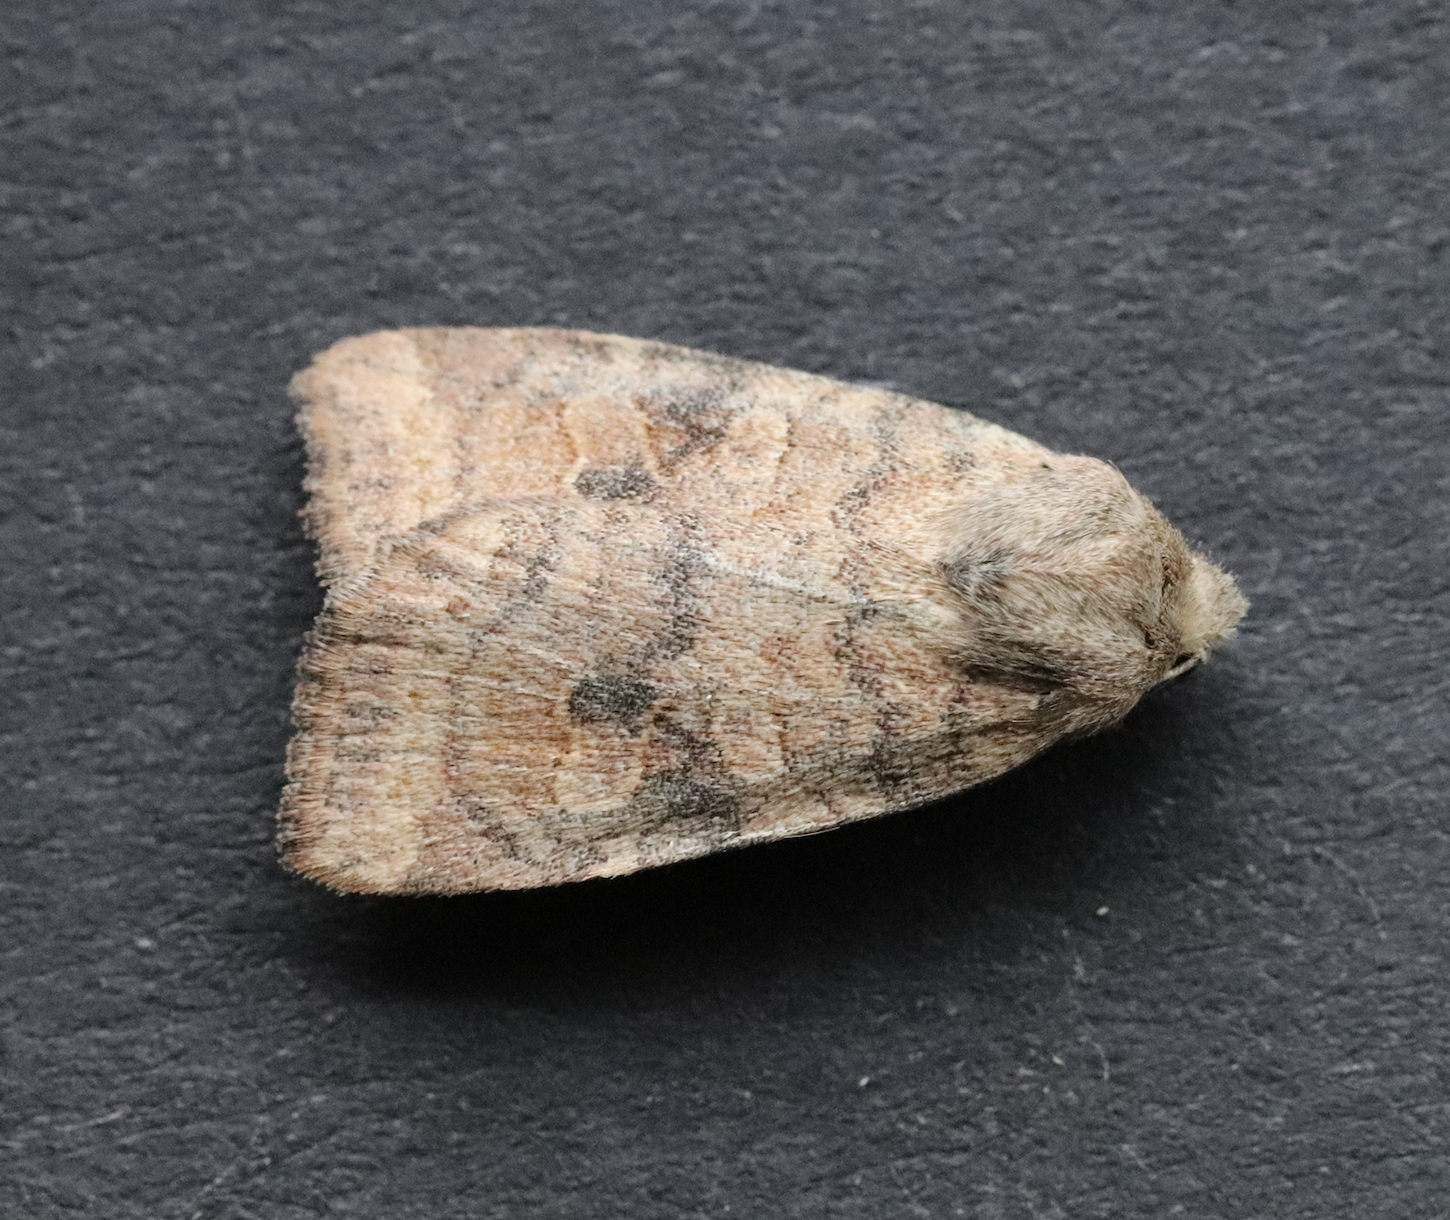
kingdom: Animalia
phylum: Arthropoda
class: Insecta
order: Lepidoptera
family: Noctuidae
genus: Anathix
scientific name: Anathix puta
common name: Puta sallow
